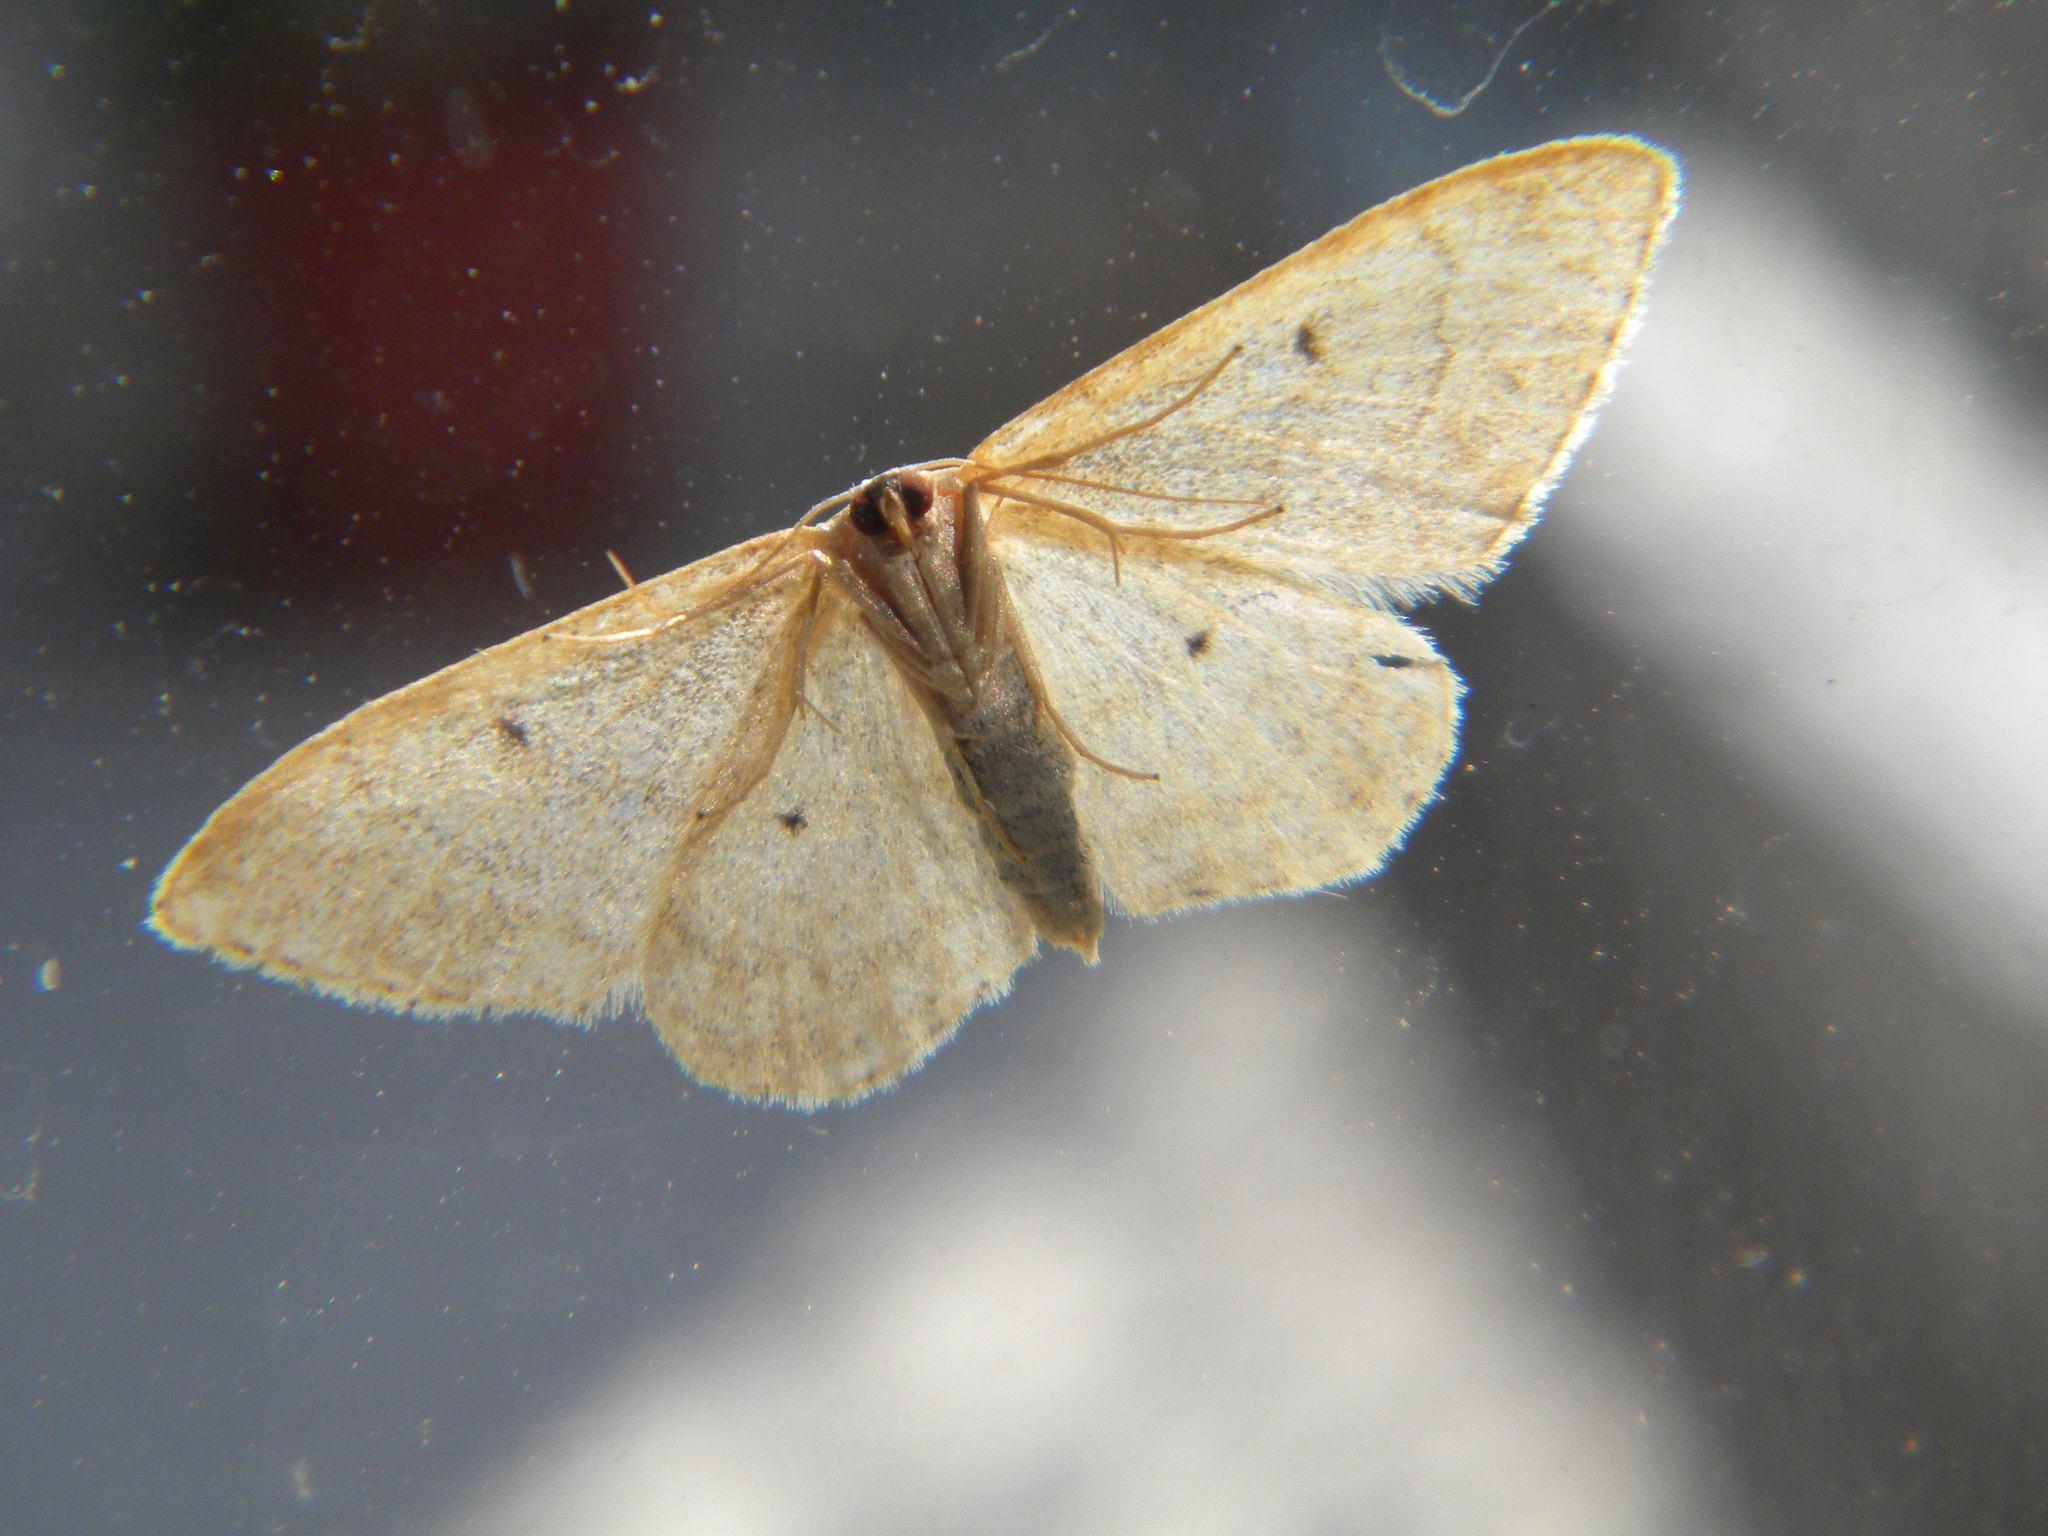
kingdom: Animalia
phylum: Arthropoda
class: Insecta
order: Lepidoptera
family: Geometridae
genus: Idaea
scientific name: Idaea maritimaria
